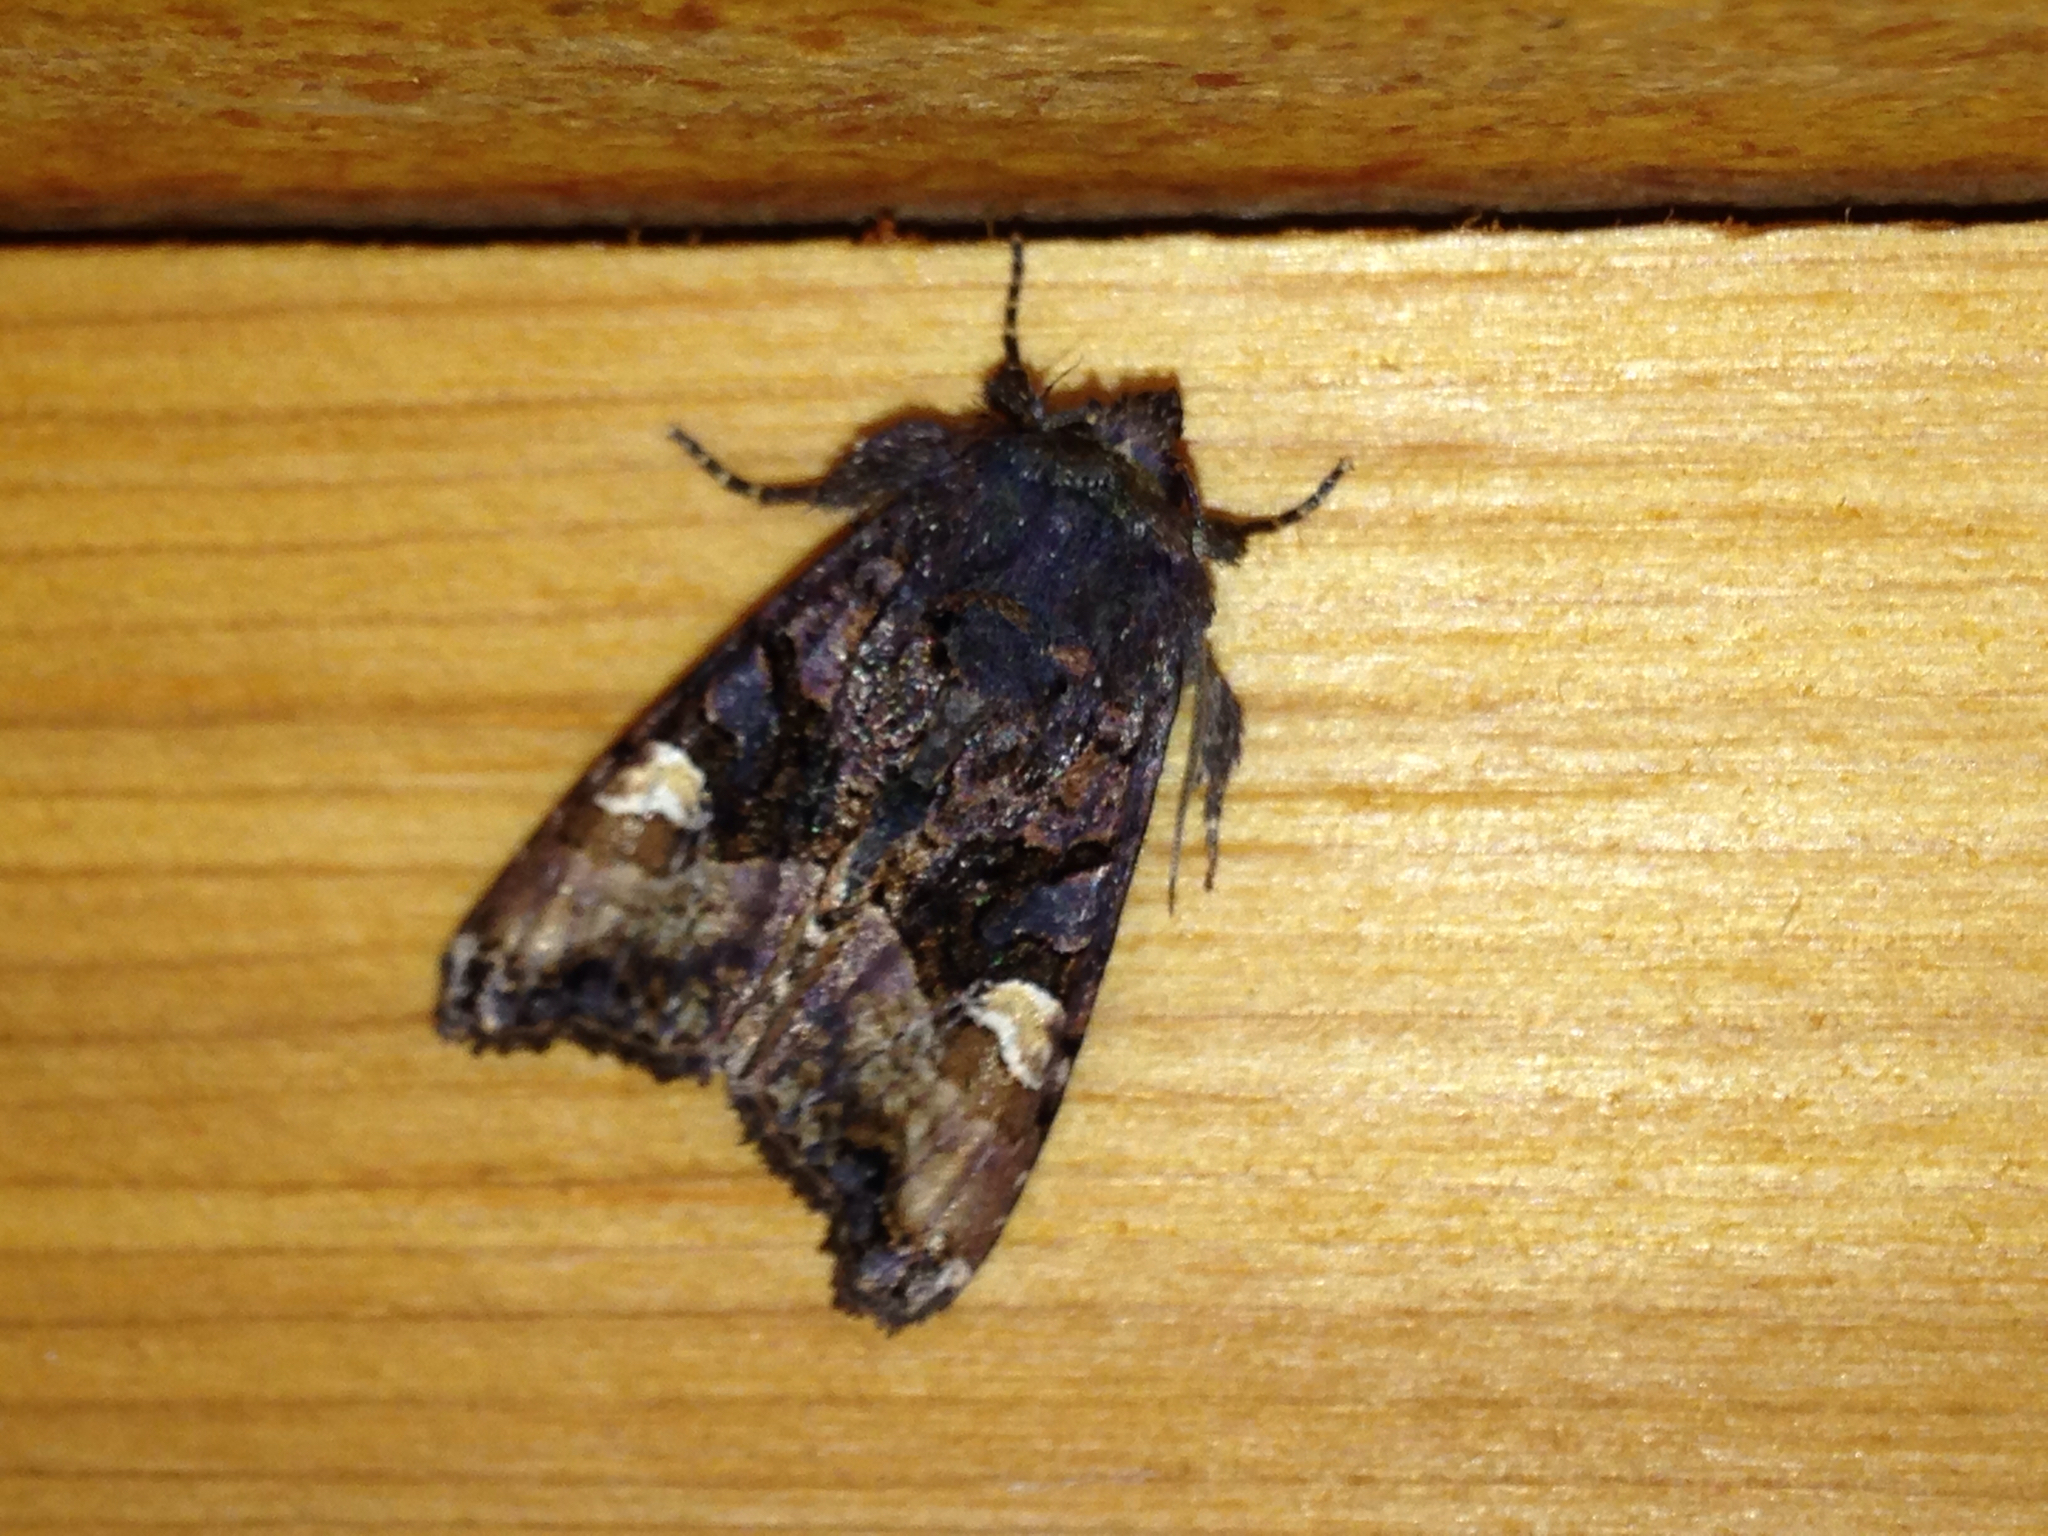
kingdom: Animalia
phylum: Arthropoda
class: Insecta
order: Lepidoptera
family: Noctuidae
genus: Euplexia
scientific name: Euplexia benesimilis
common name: American angle shades
